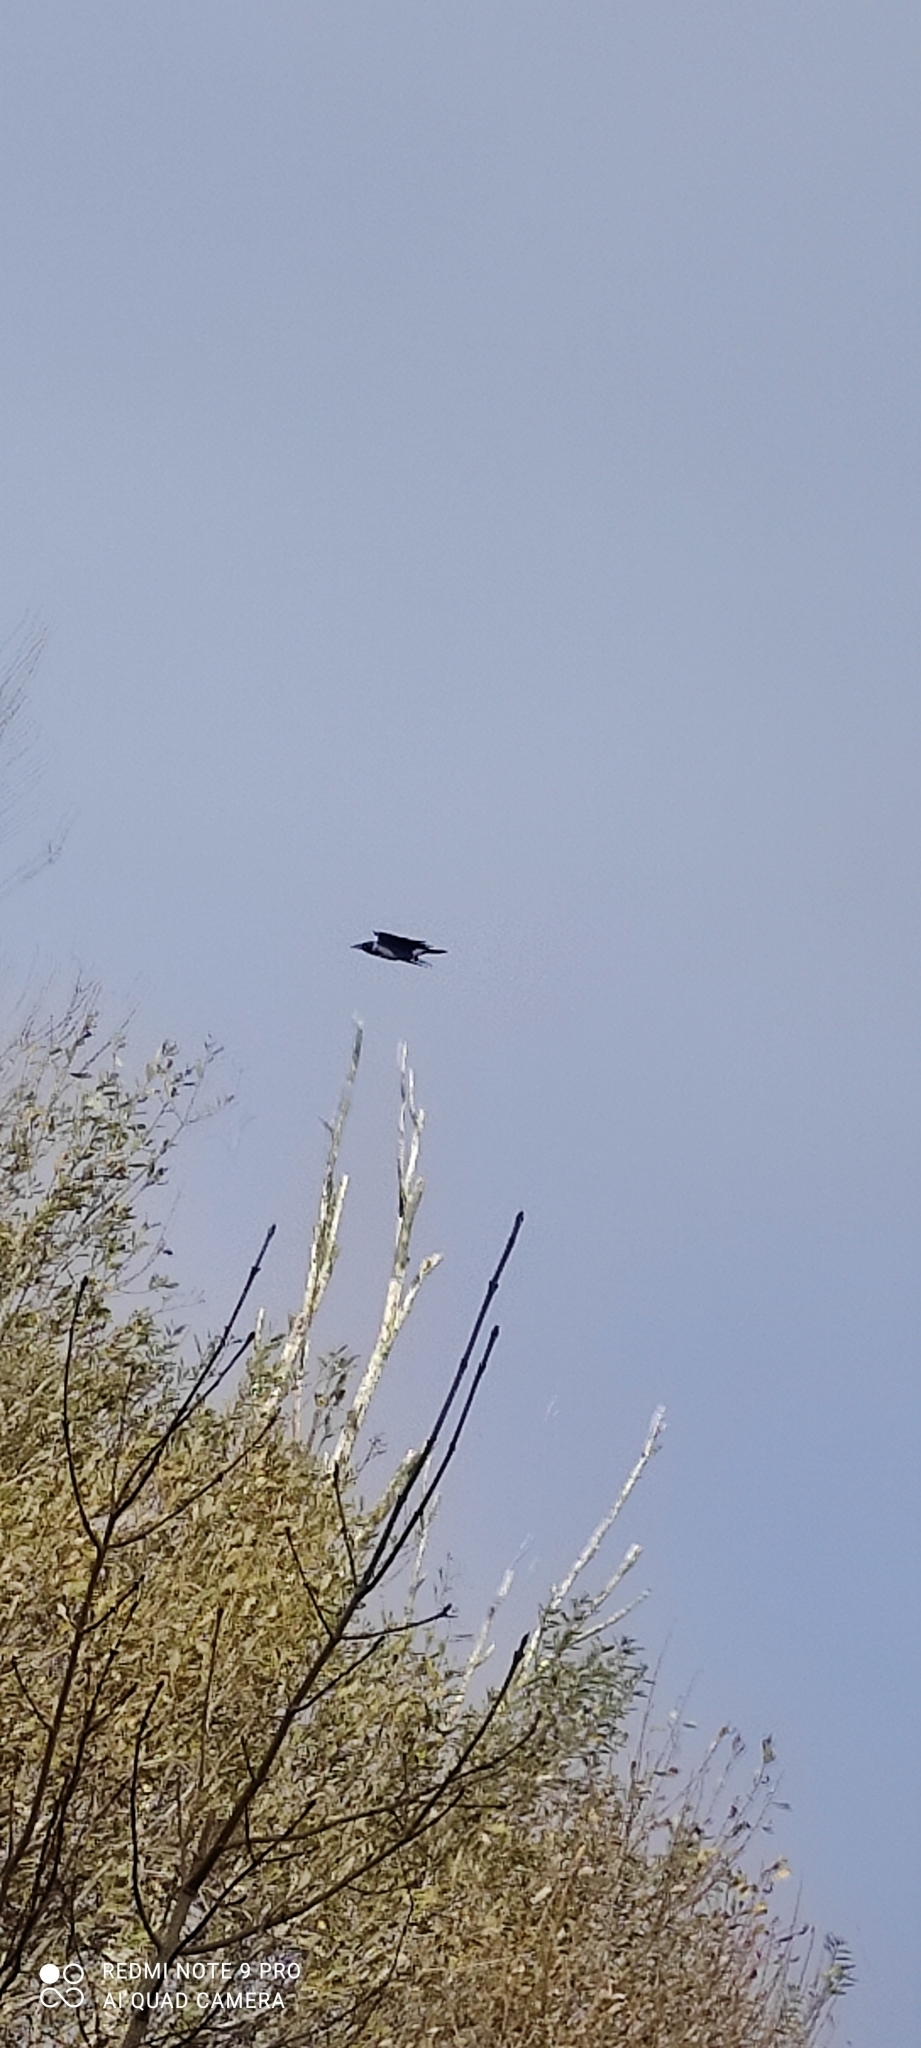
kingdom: Animalia
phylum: Chordata
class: Aves
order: Passeriformes
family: Corvidae
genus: Corvus
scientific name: Corvus cornix
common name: Hooded crow
